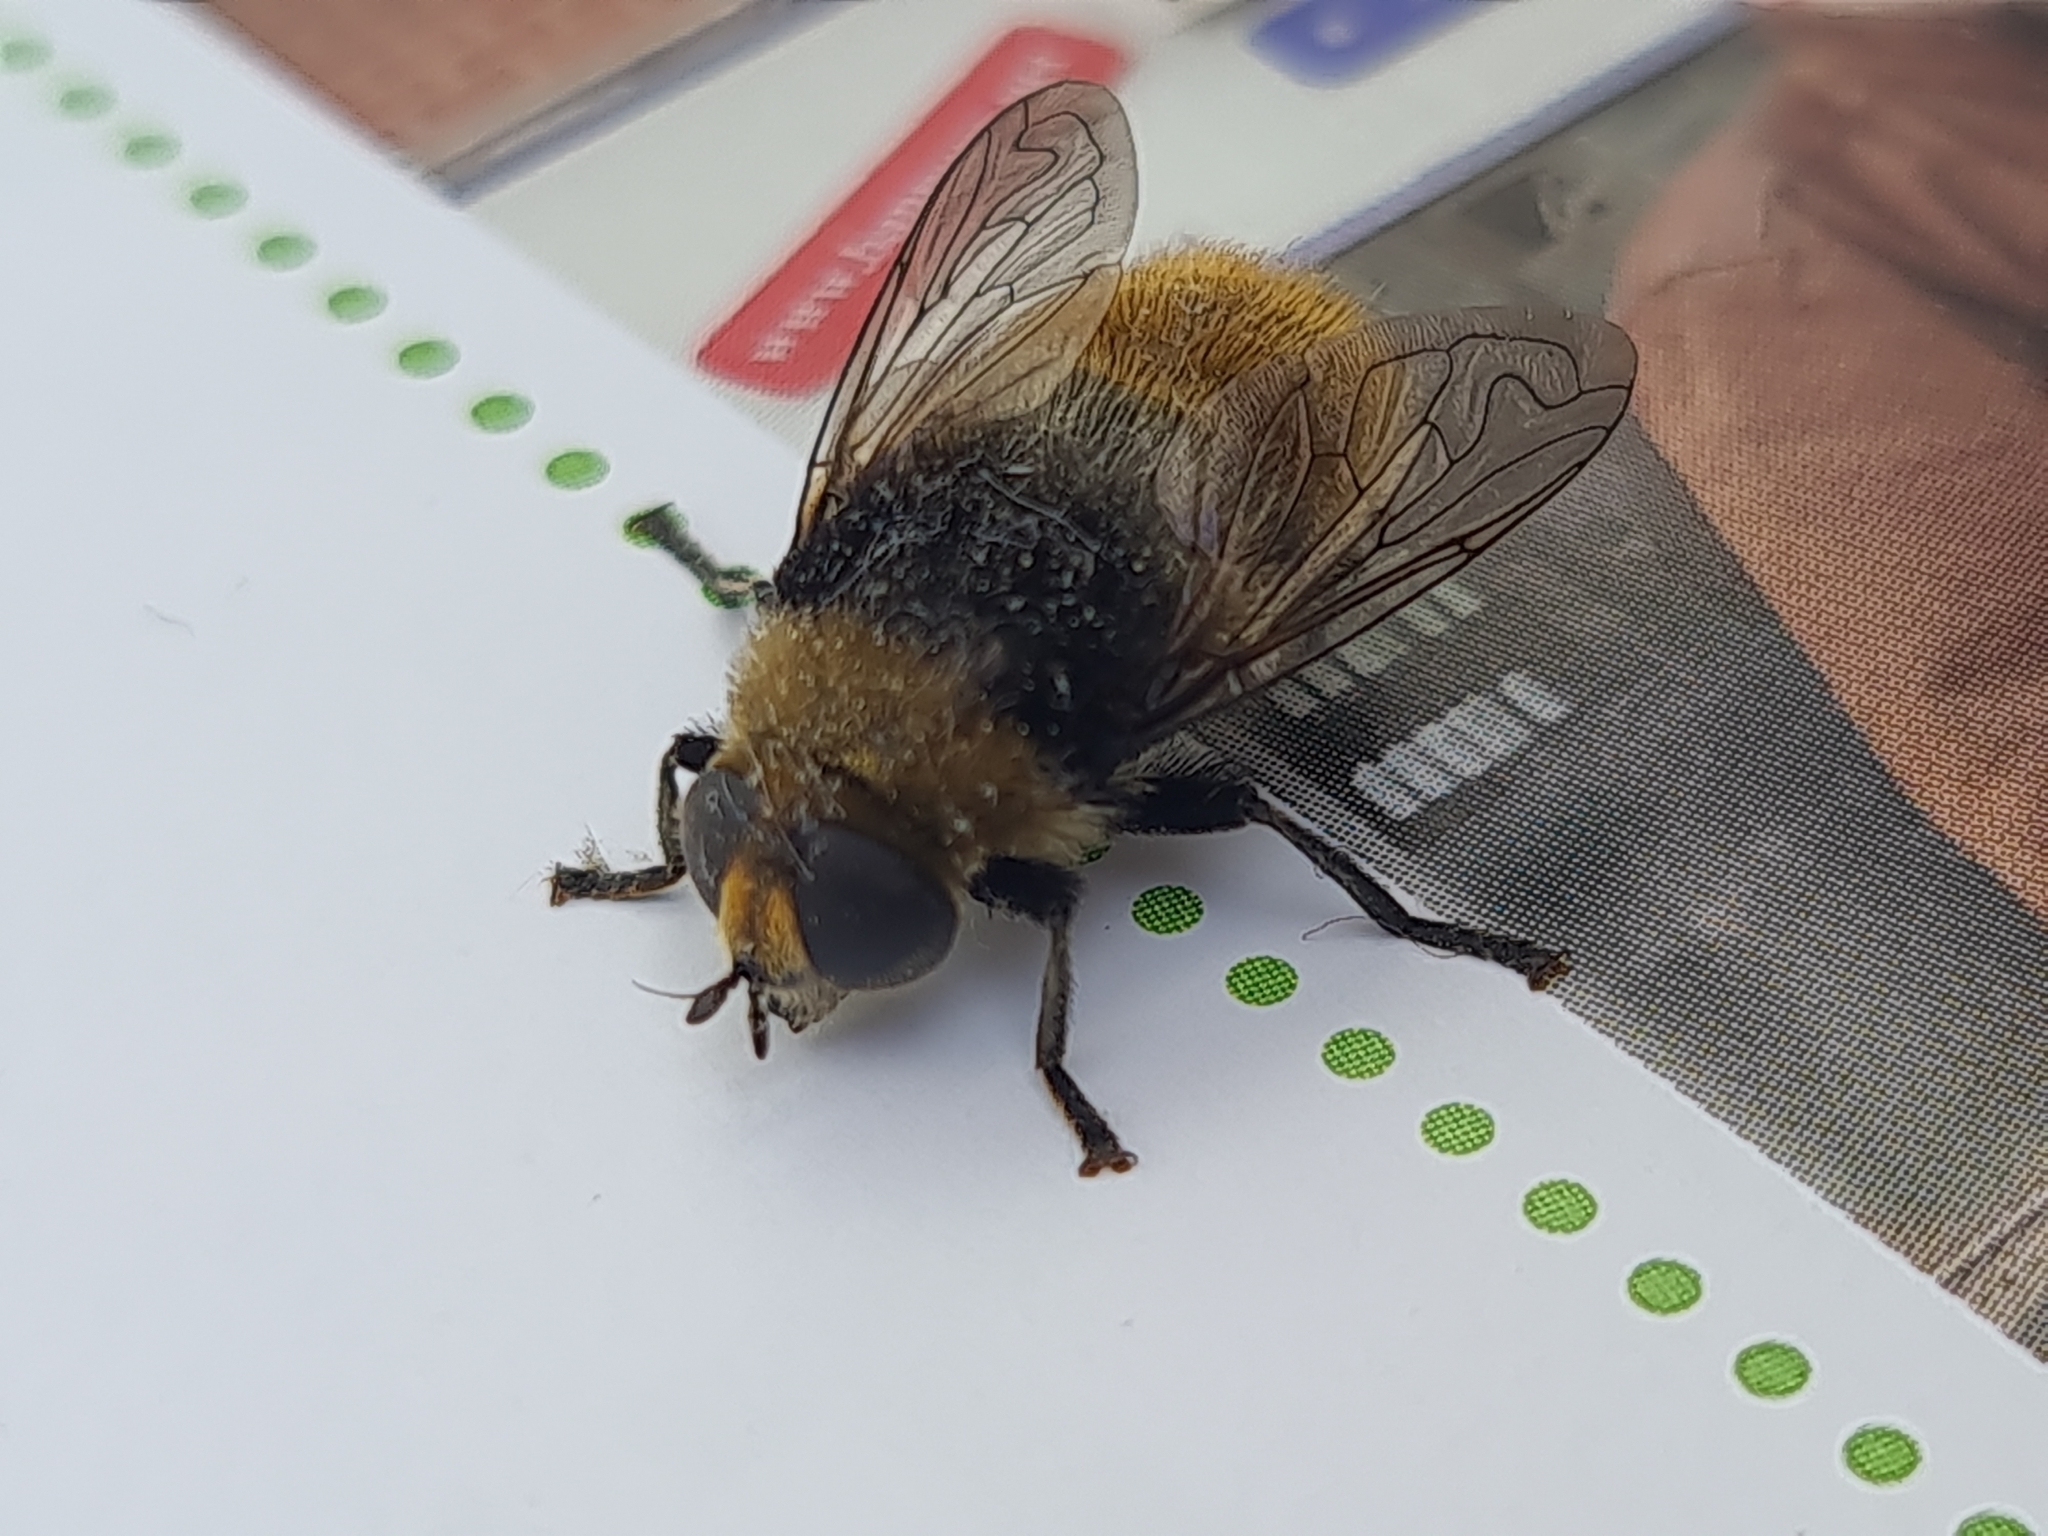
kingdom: Animalia
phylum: Arthropoda
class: Insecta
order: Diptera
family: Syrphidae
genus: Merodon
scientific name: Merodon equestris
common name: Greater bulb-fly
